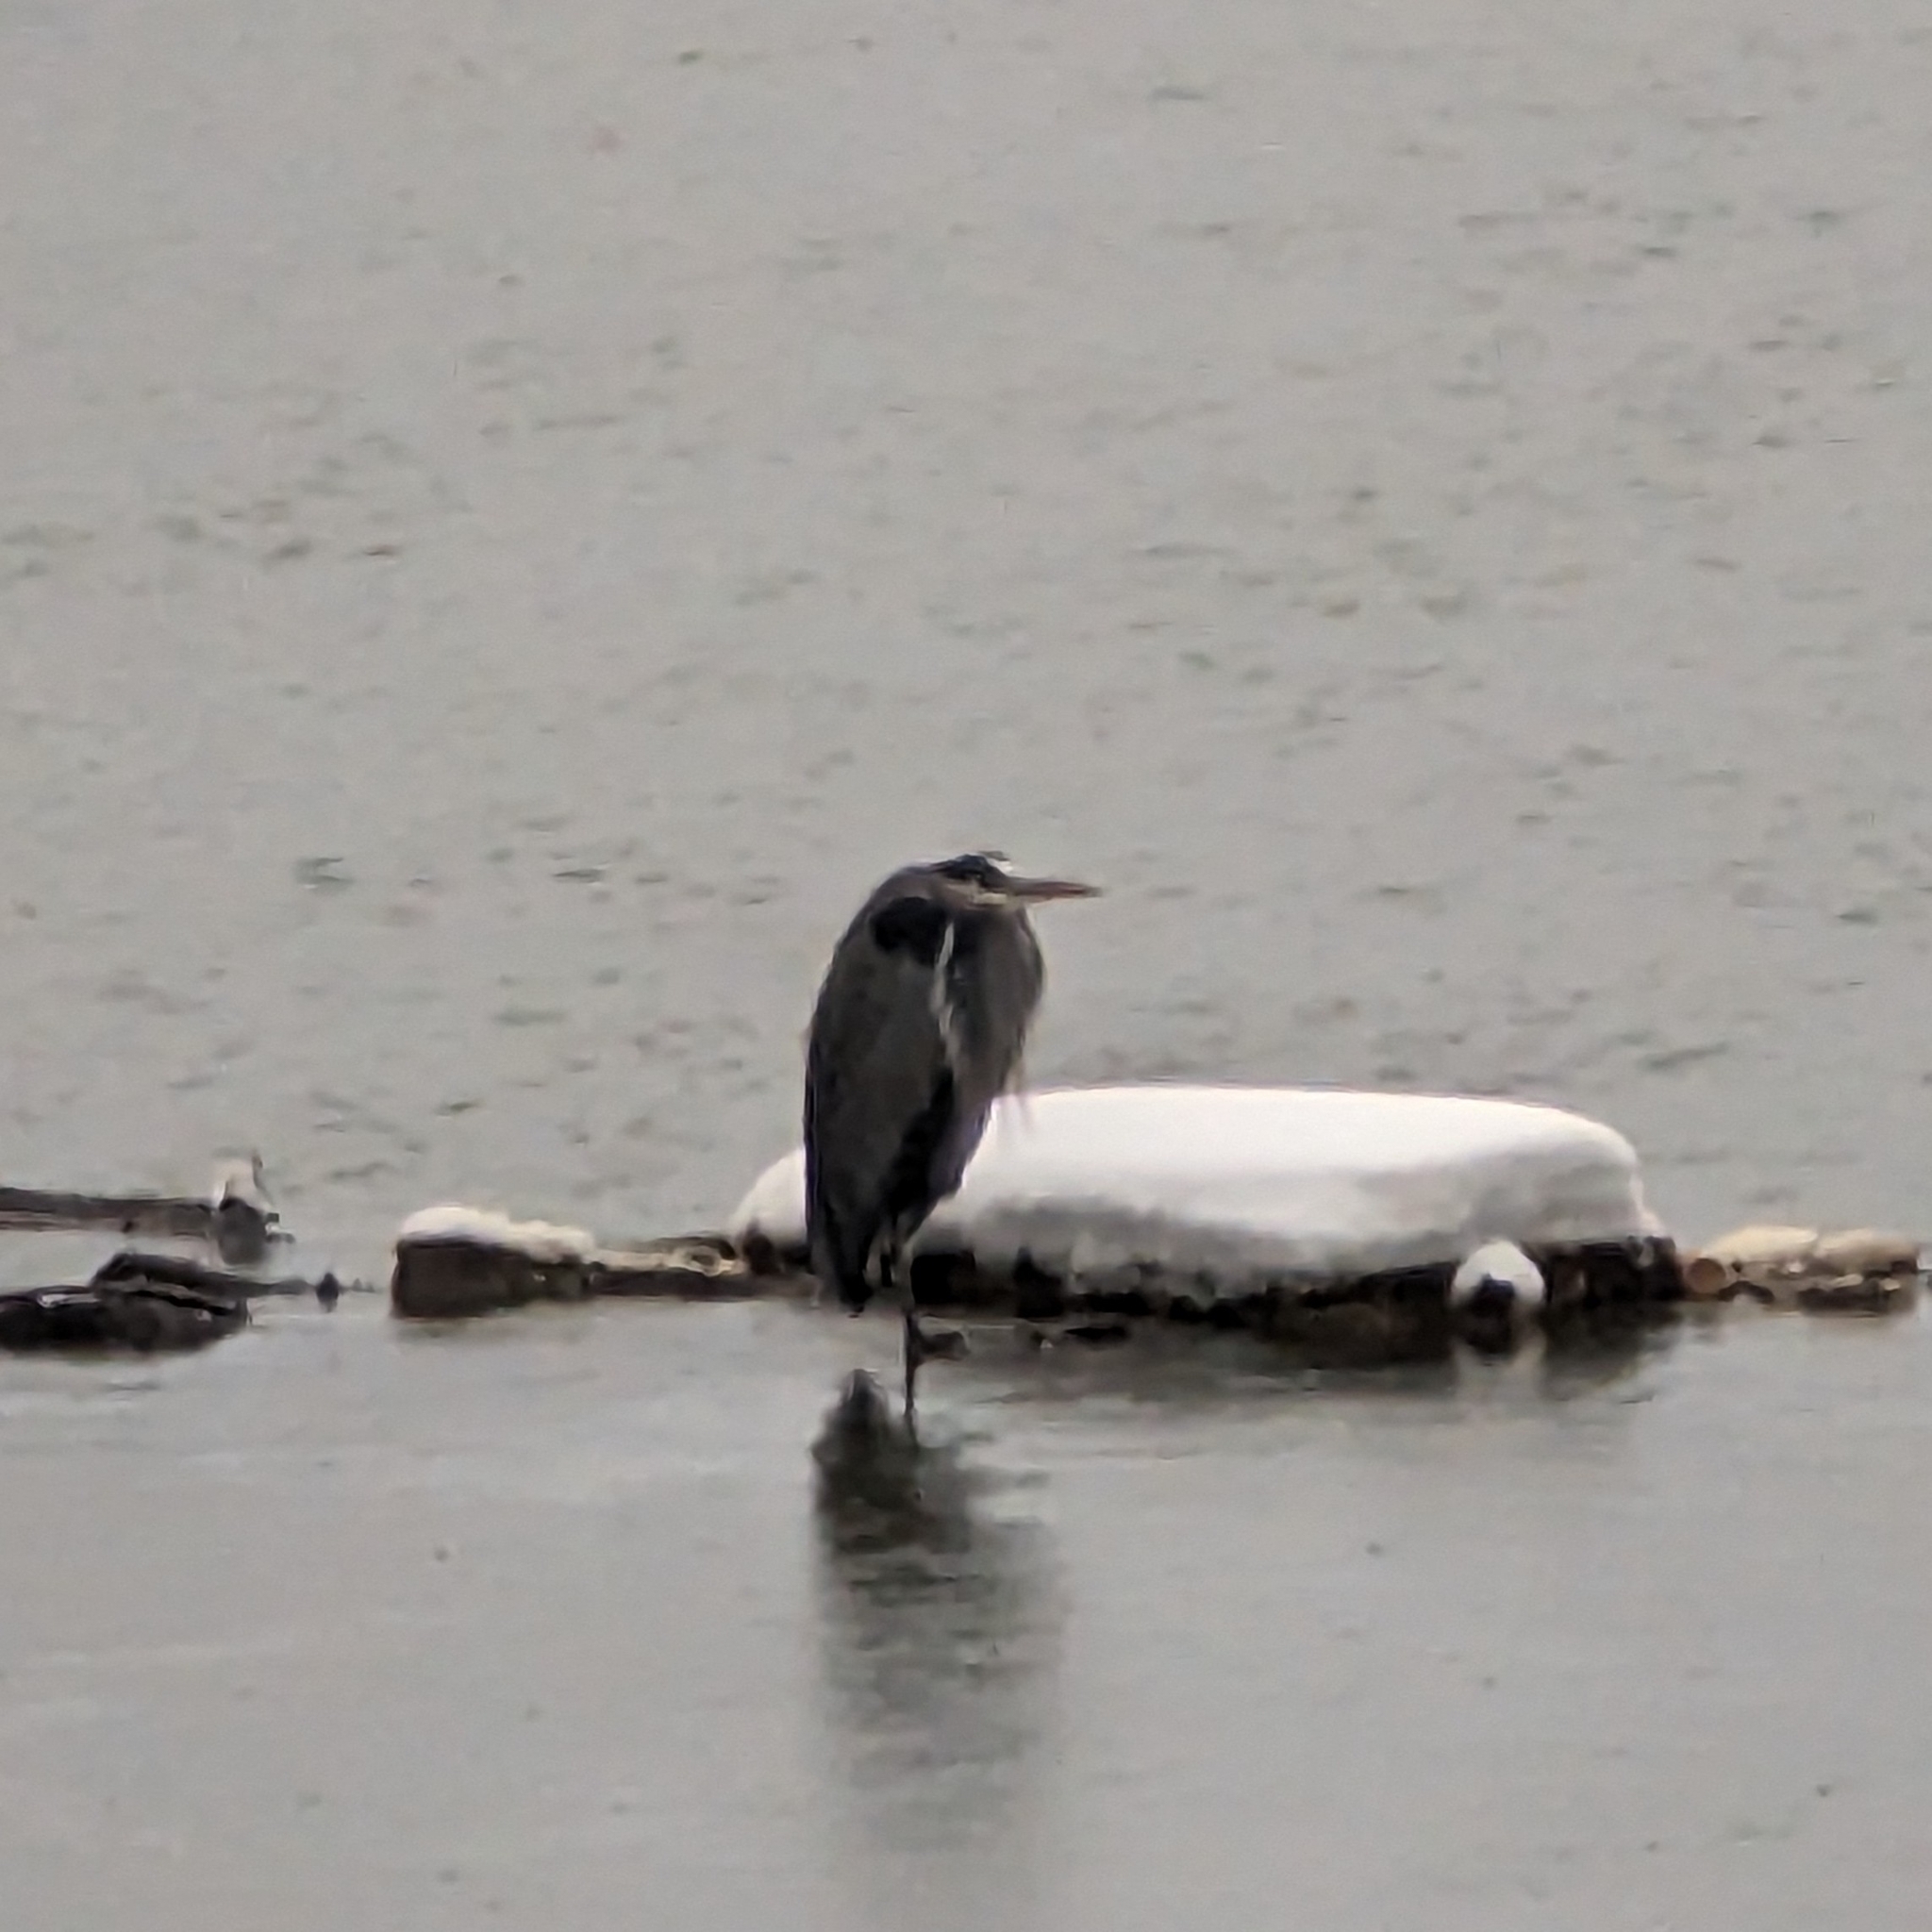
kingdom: Animalia
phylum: Chordata
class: Aves
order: Pelecaniformes
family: Ardeidae
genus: Ardea
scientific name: Ardea herodias
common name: Great blue heron
